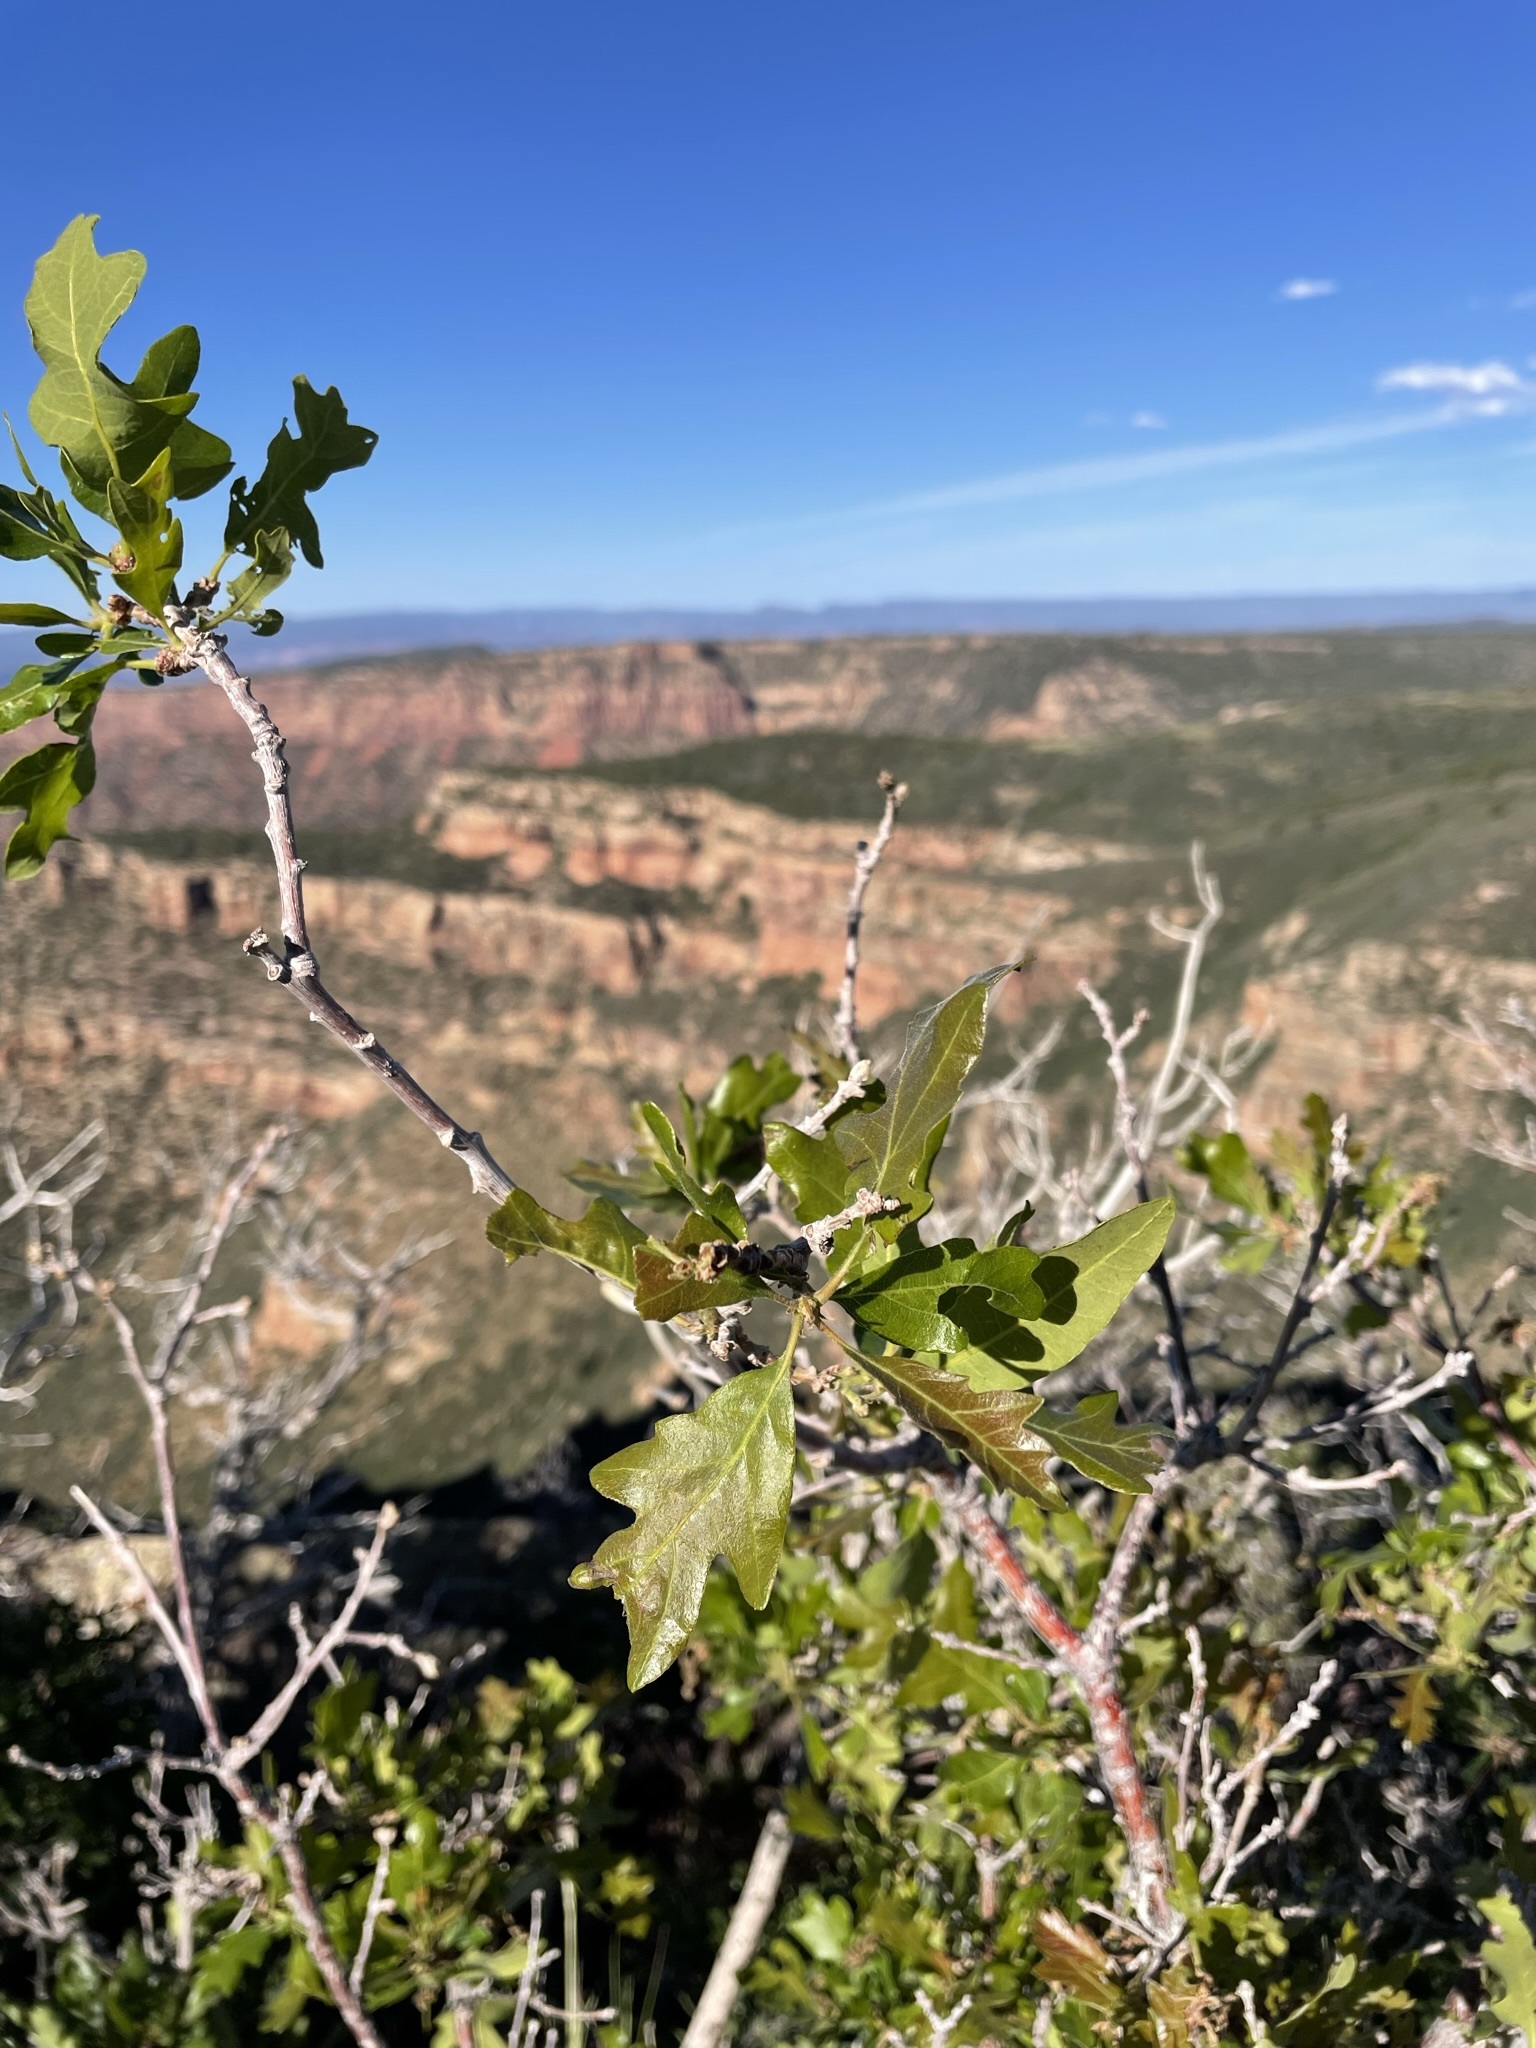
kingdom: Plantae
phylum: Tracheophyta
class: Magnoliopsida
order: Fagales
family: Fagaceae
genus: Quercus
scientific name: Quercus gambelii
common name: Gambel oak
